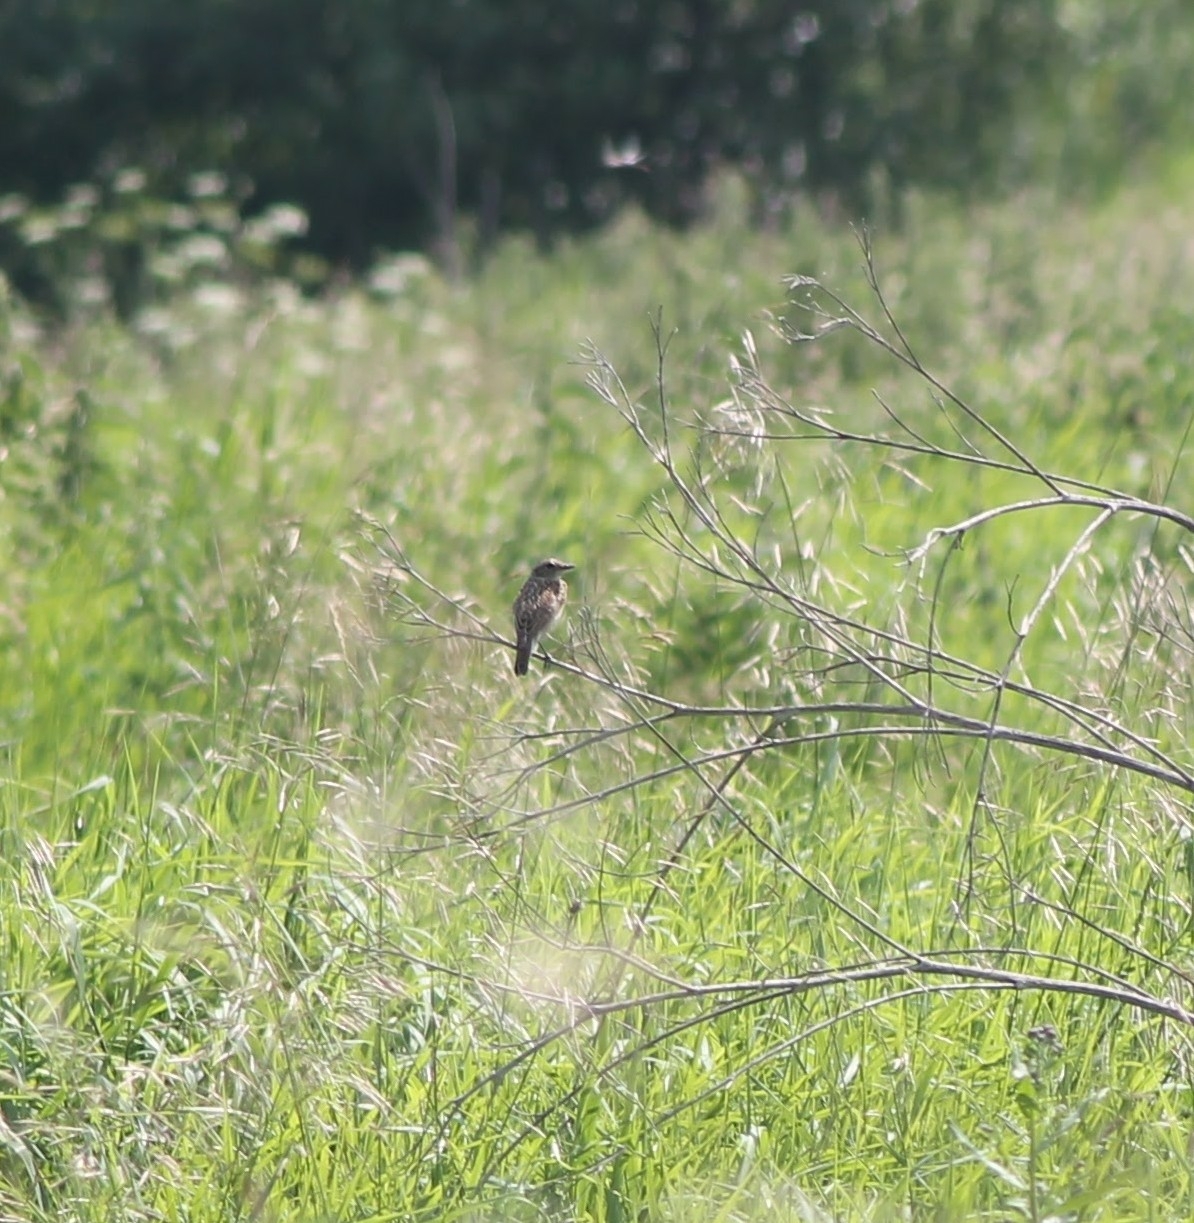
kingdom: Animalia
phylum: Chordata
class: Aves
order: Passeriformes
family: Muscicapidae
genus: Saxicola
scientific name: Saxicola rubetra
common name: Whinchat
